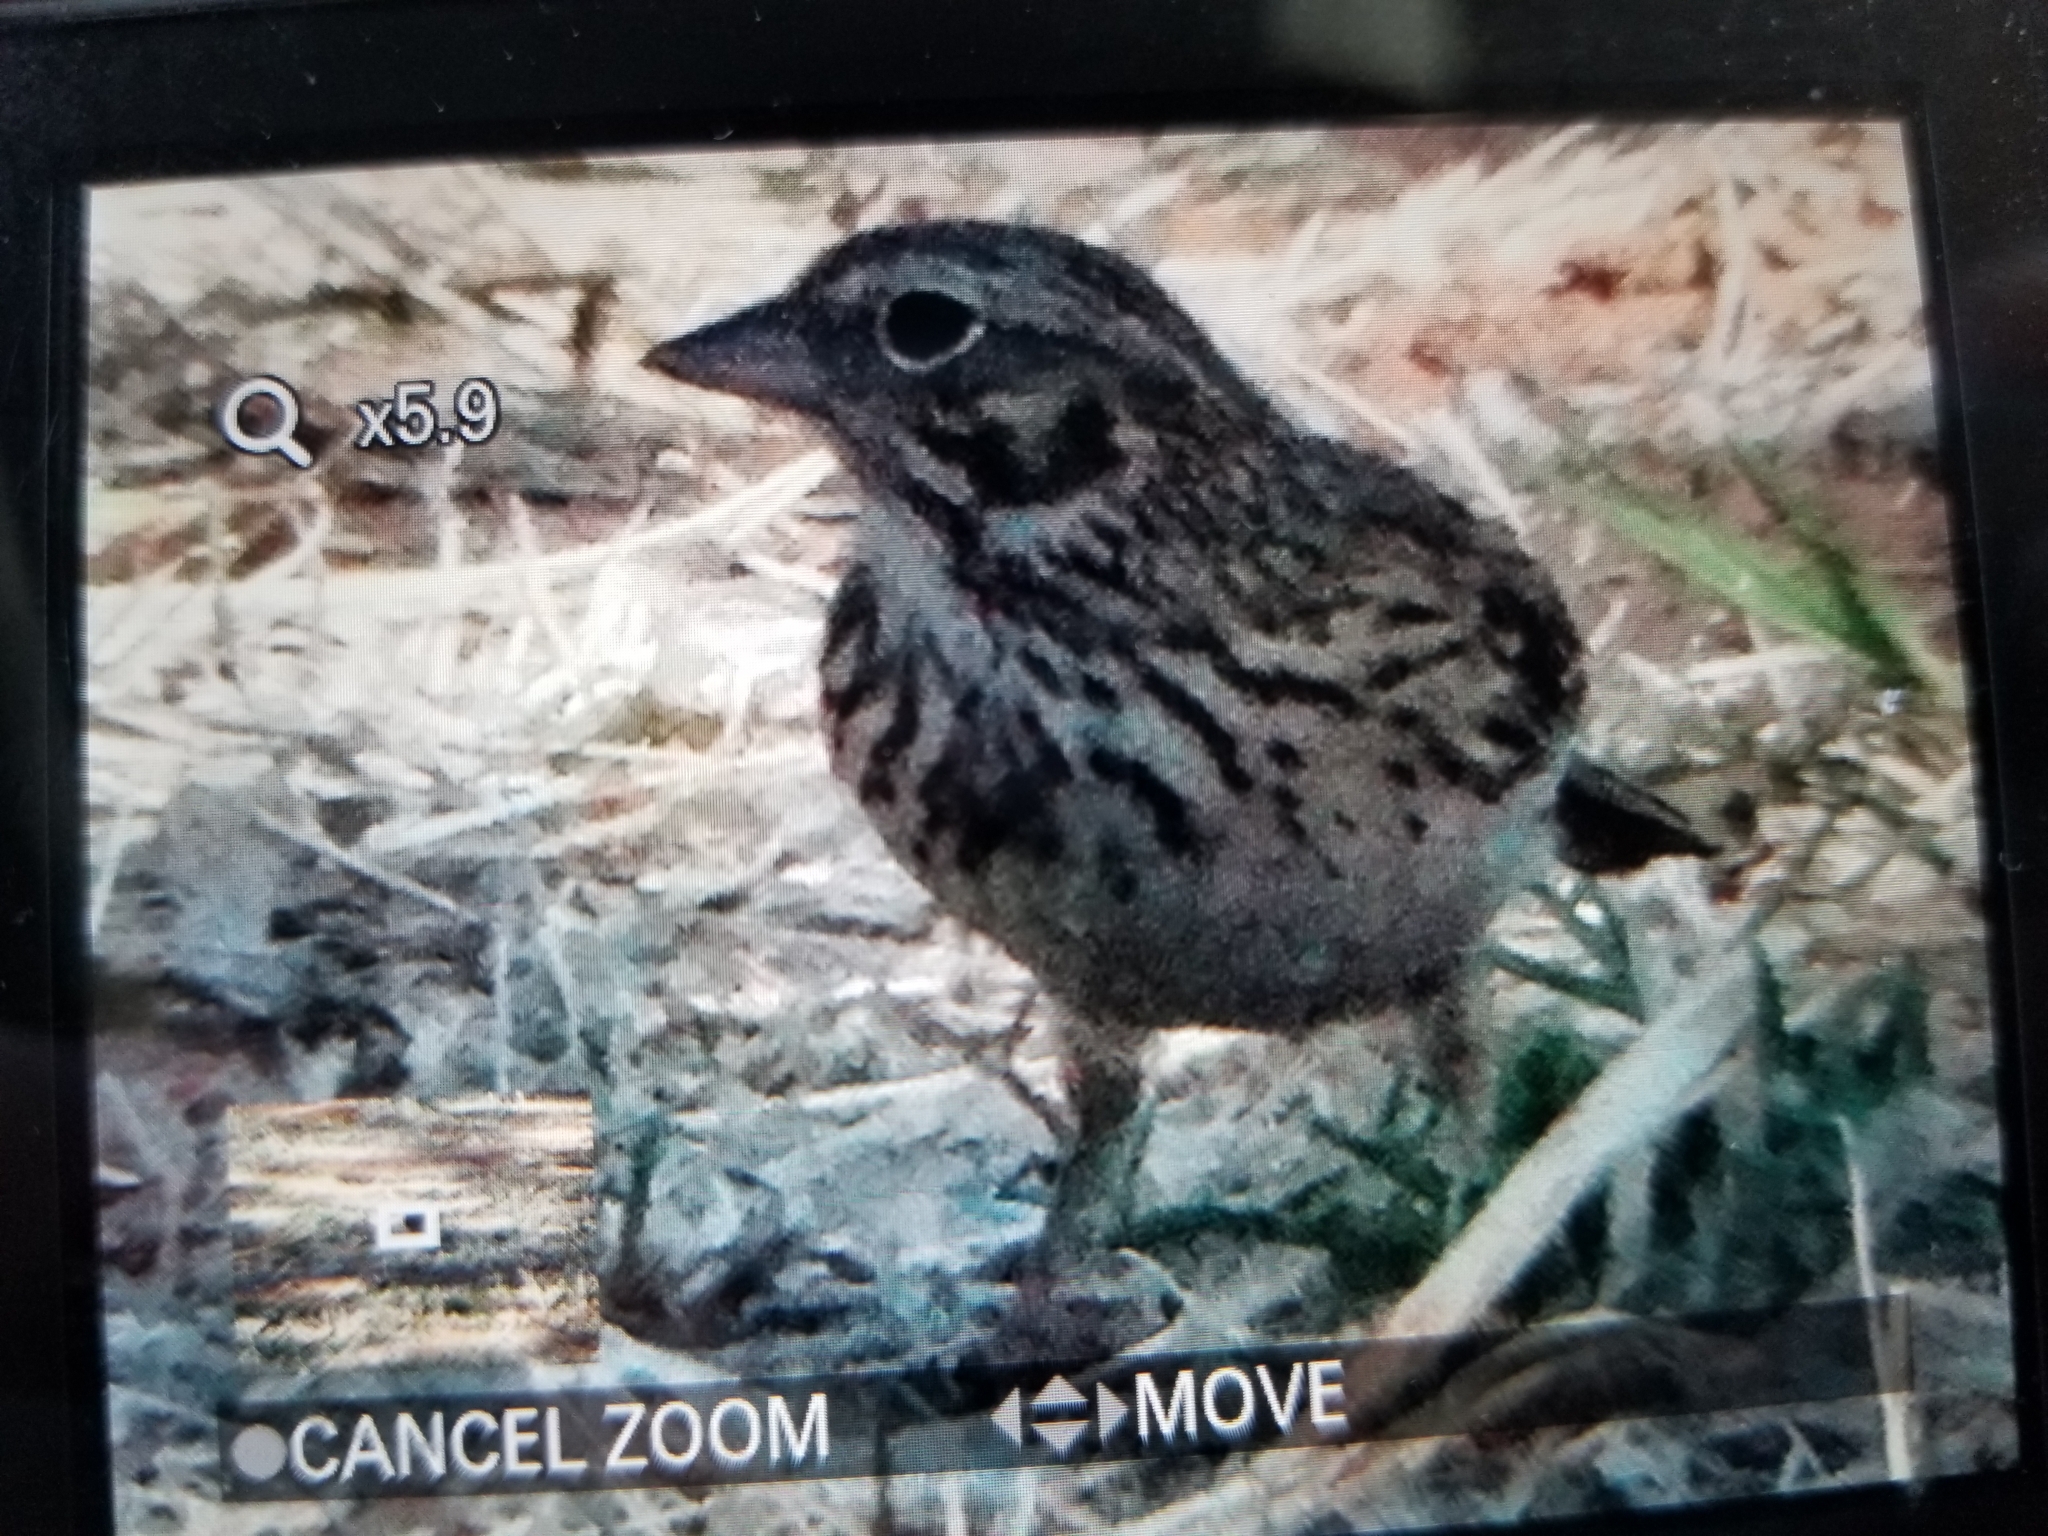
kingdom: Animalia
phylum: Chordata
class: Aves
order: Passeriformes
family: Passerellidae
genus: Pooecetes
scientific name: Pooecetes gramineus
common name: Vesper sparrow
